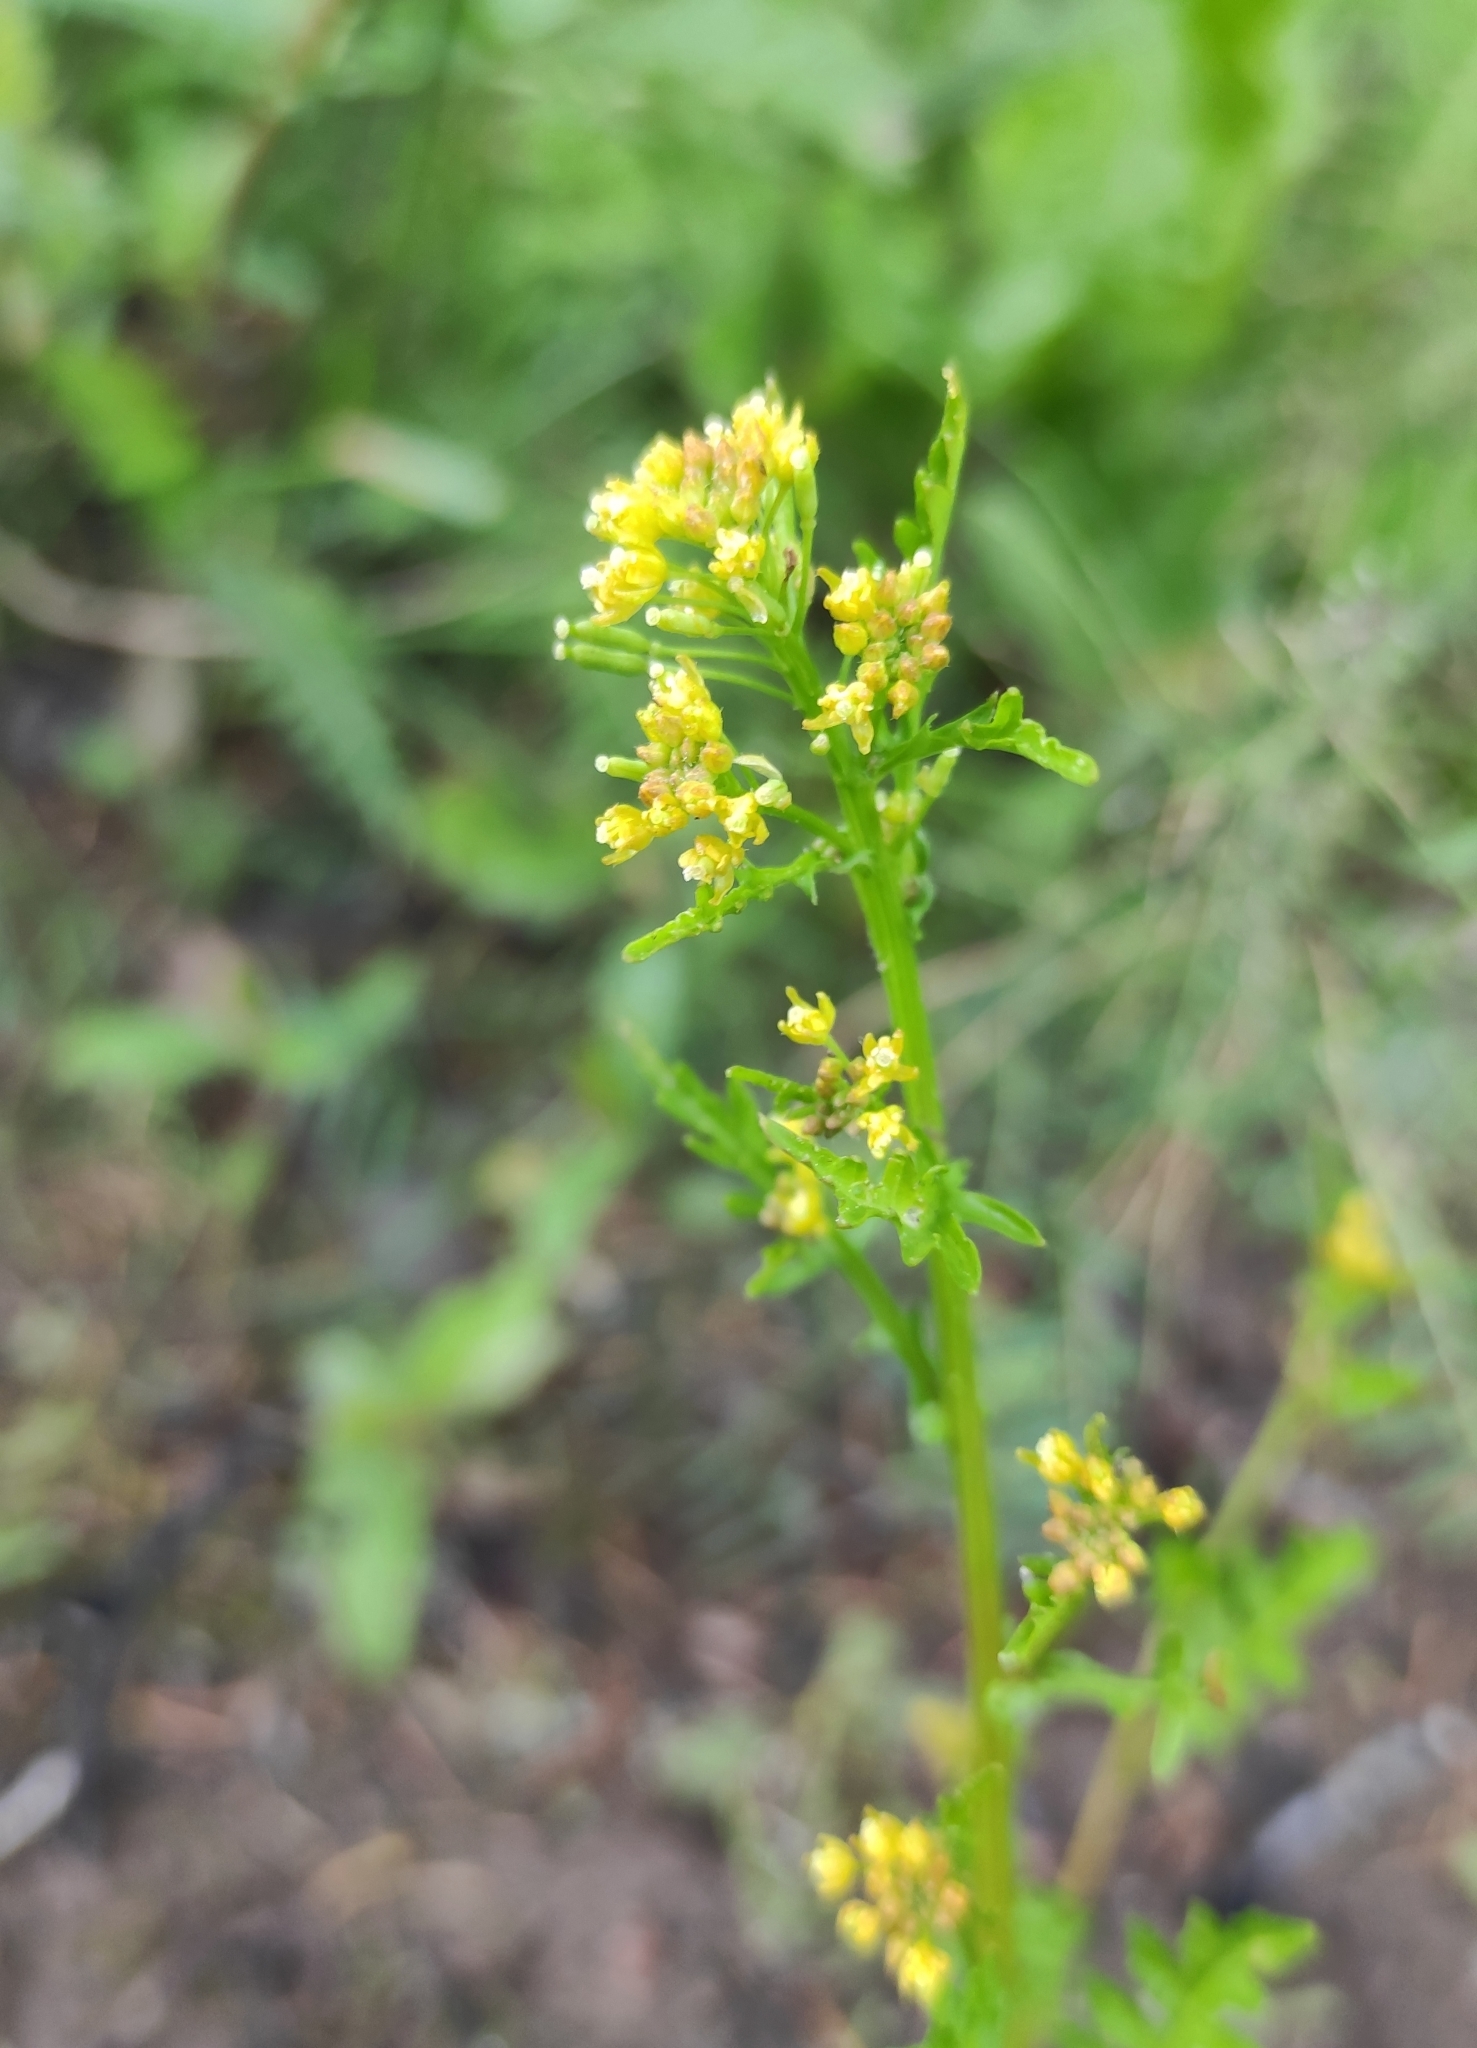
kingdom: Plantae
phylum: Tracheophyta
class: Magnoliopsida
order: Brassicales
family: Brassicaceae
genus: Rorippa
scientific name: Rorippa palustris
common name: Marsh yellow-cress
